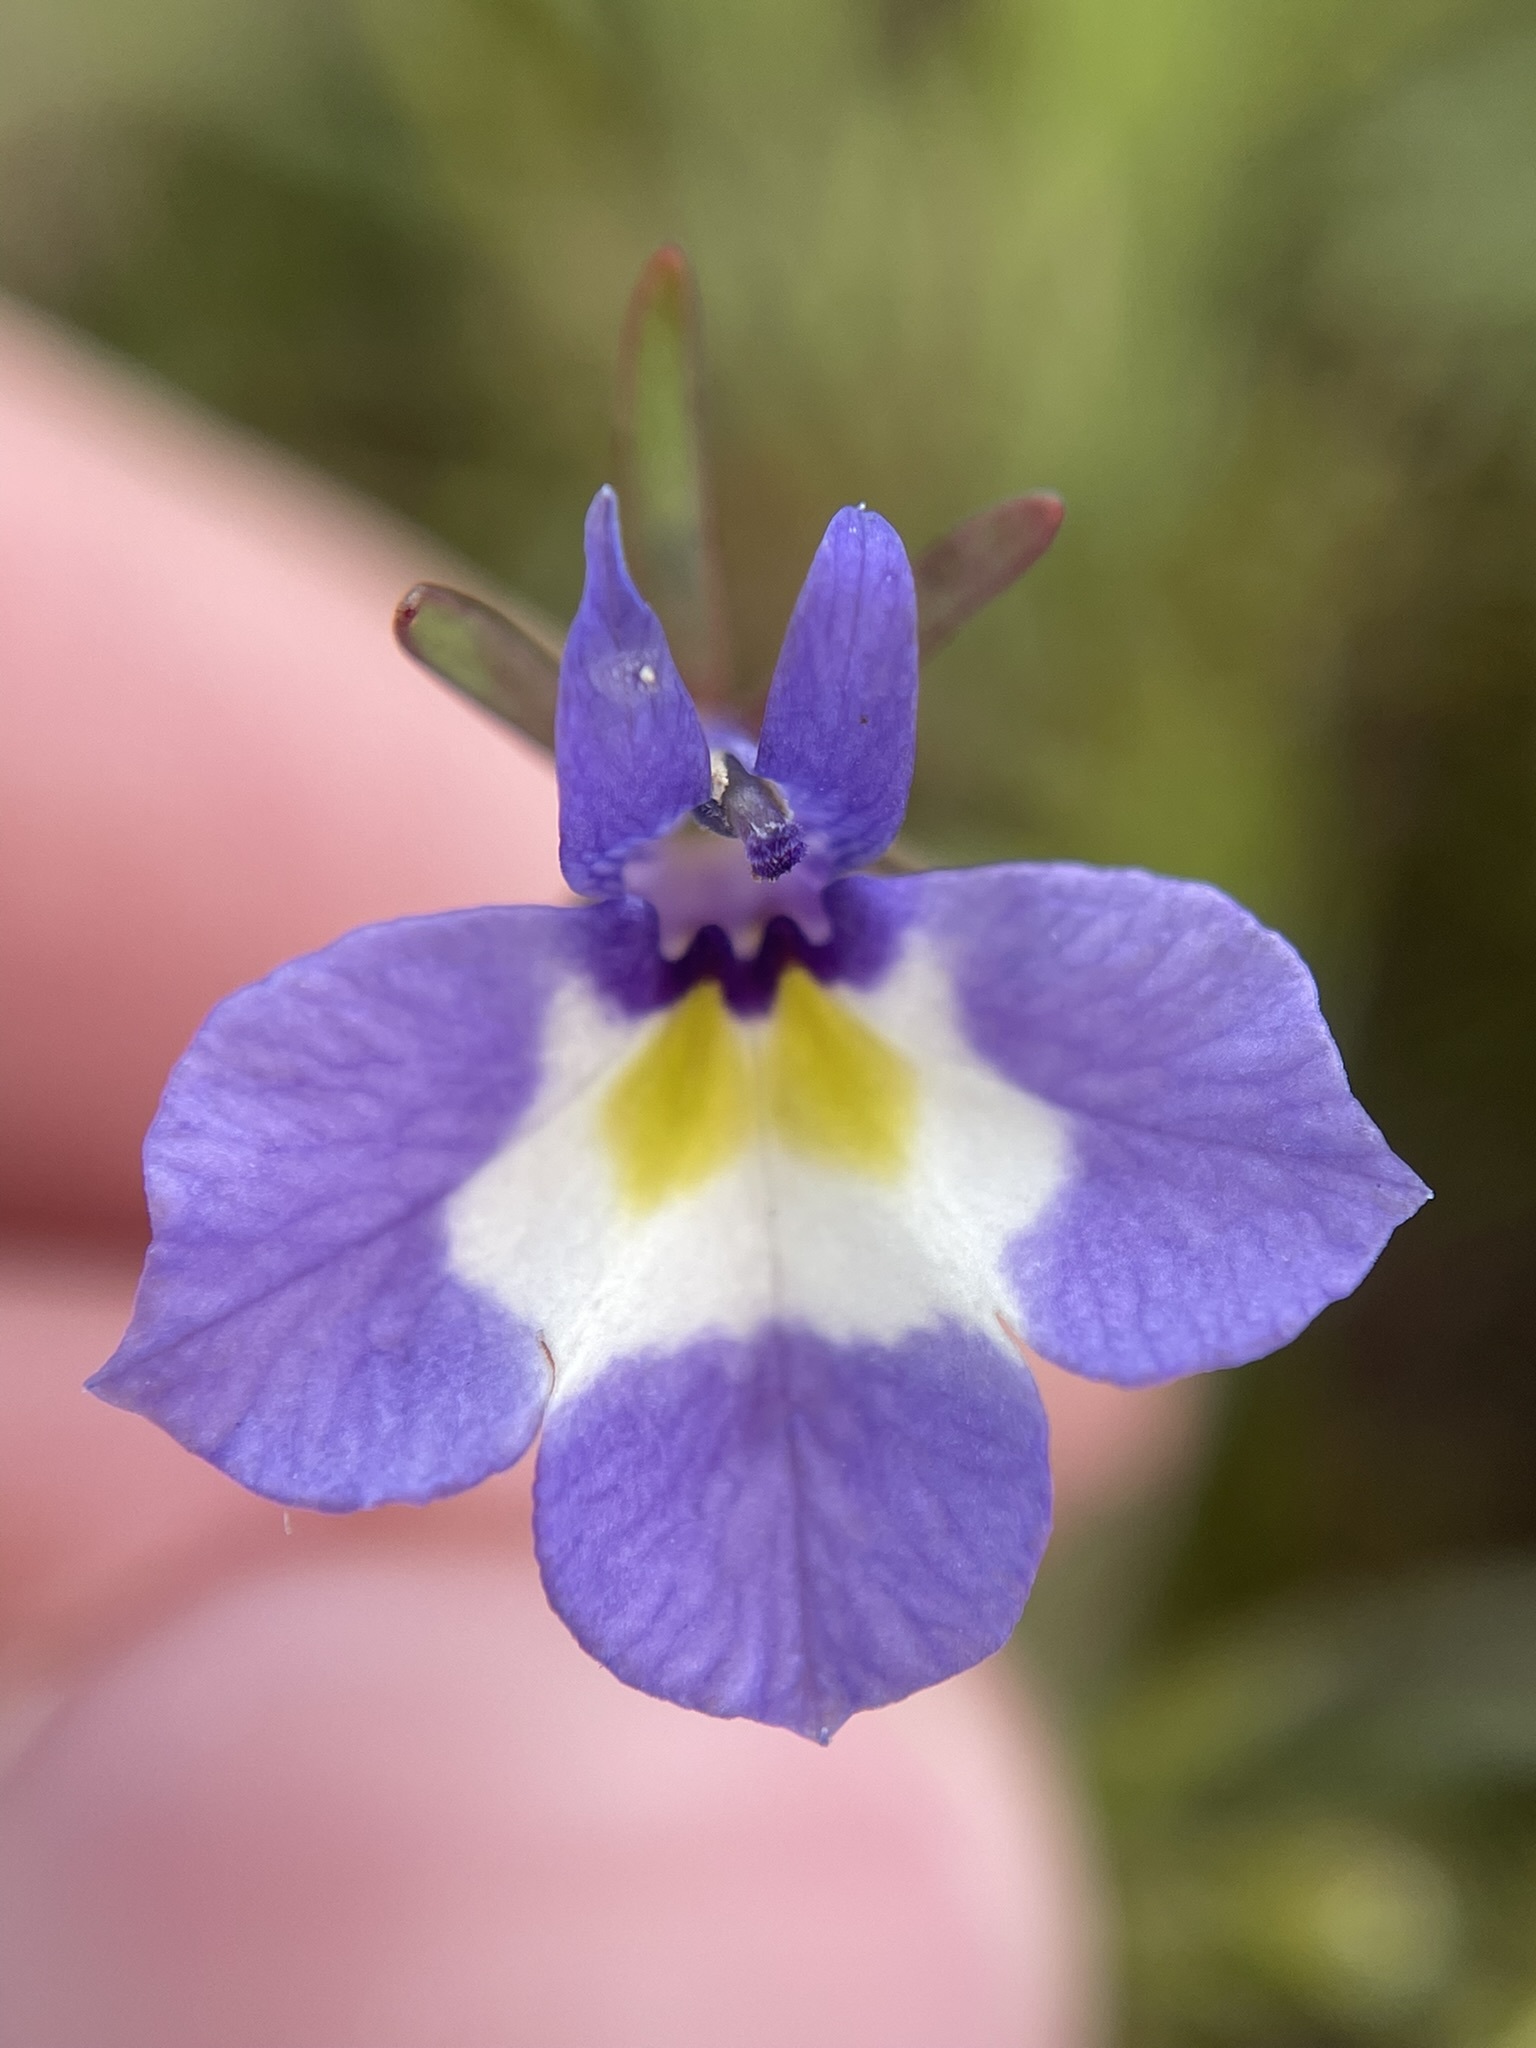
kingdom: Plantae
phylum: Tracheophyta
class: Magnoliopsida
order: Asterales
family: Campanulaceae
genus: Downingia
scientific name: Downingia bicornuta
